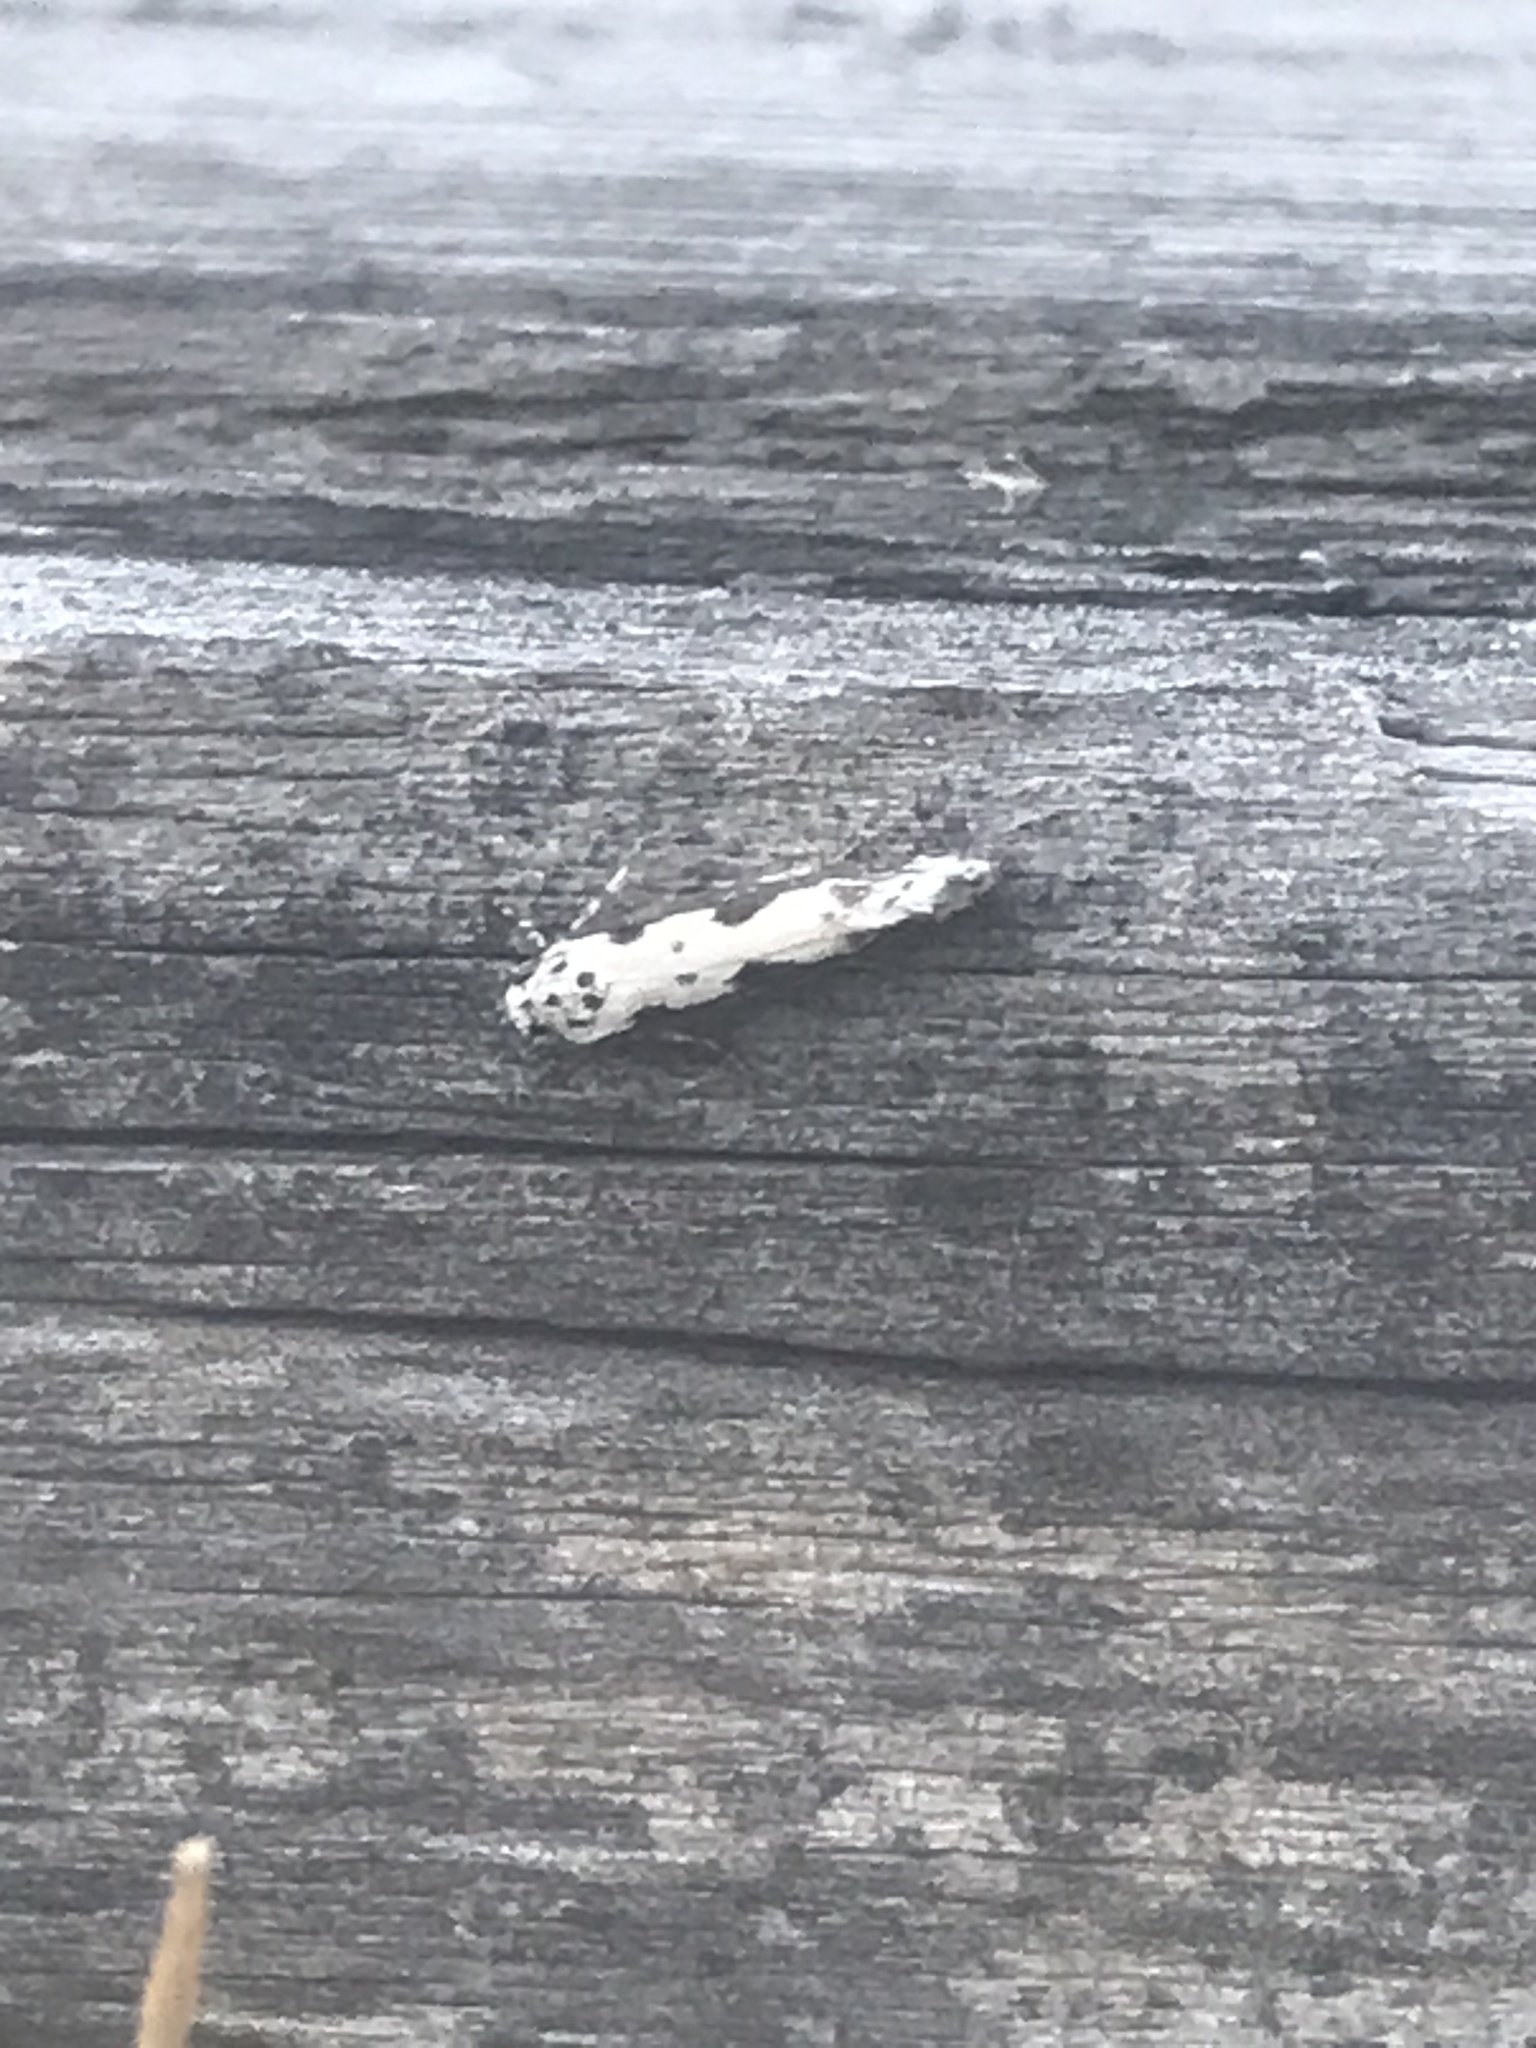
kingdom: Animalia
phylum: Arthropoda
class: Insecta
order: Lepidoptera
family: Ethmiidae
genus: Ethmia
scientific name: Ethmia marmorea
